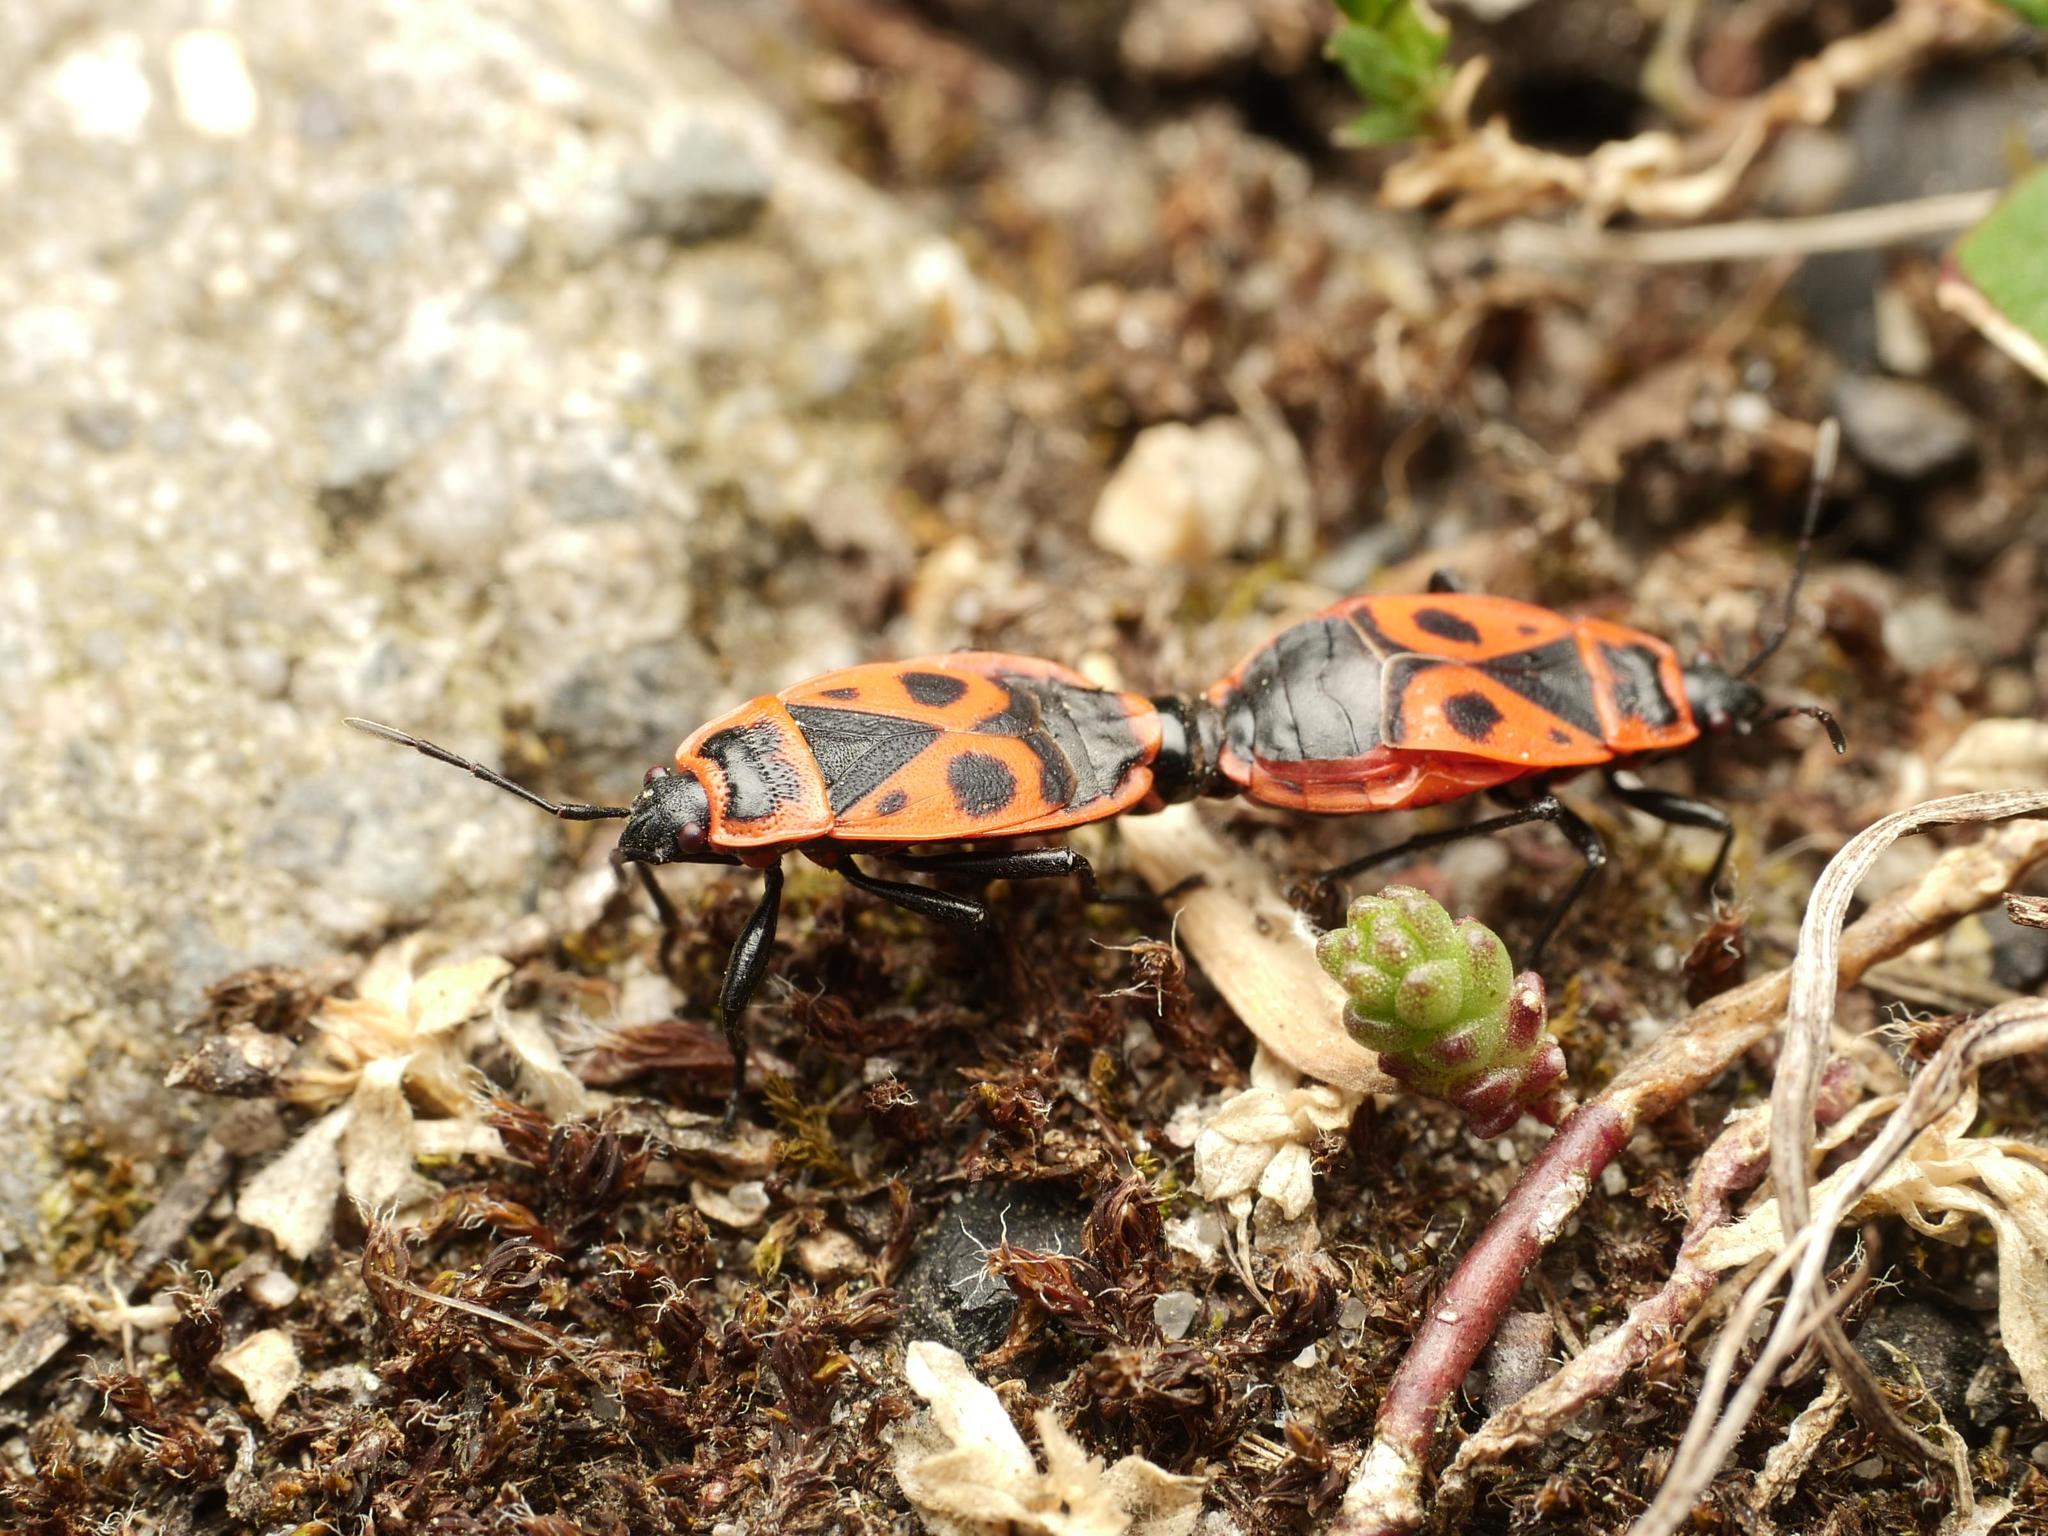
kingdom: Animalia
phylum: Arthropoda
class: Insecta
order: Hemiptera
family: Pyrrhocoridae
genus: Pyrrhocoris
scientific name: Pyrrhocoris apterus
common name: Firebug
